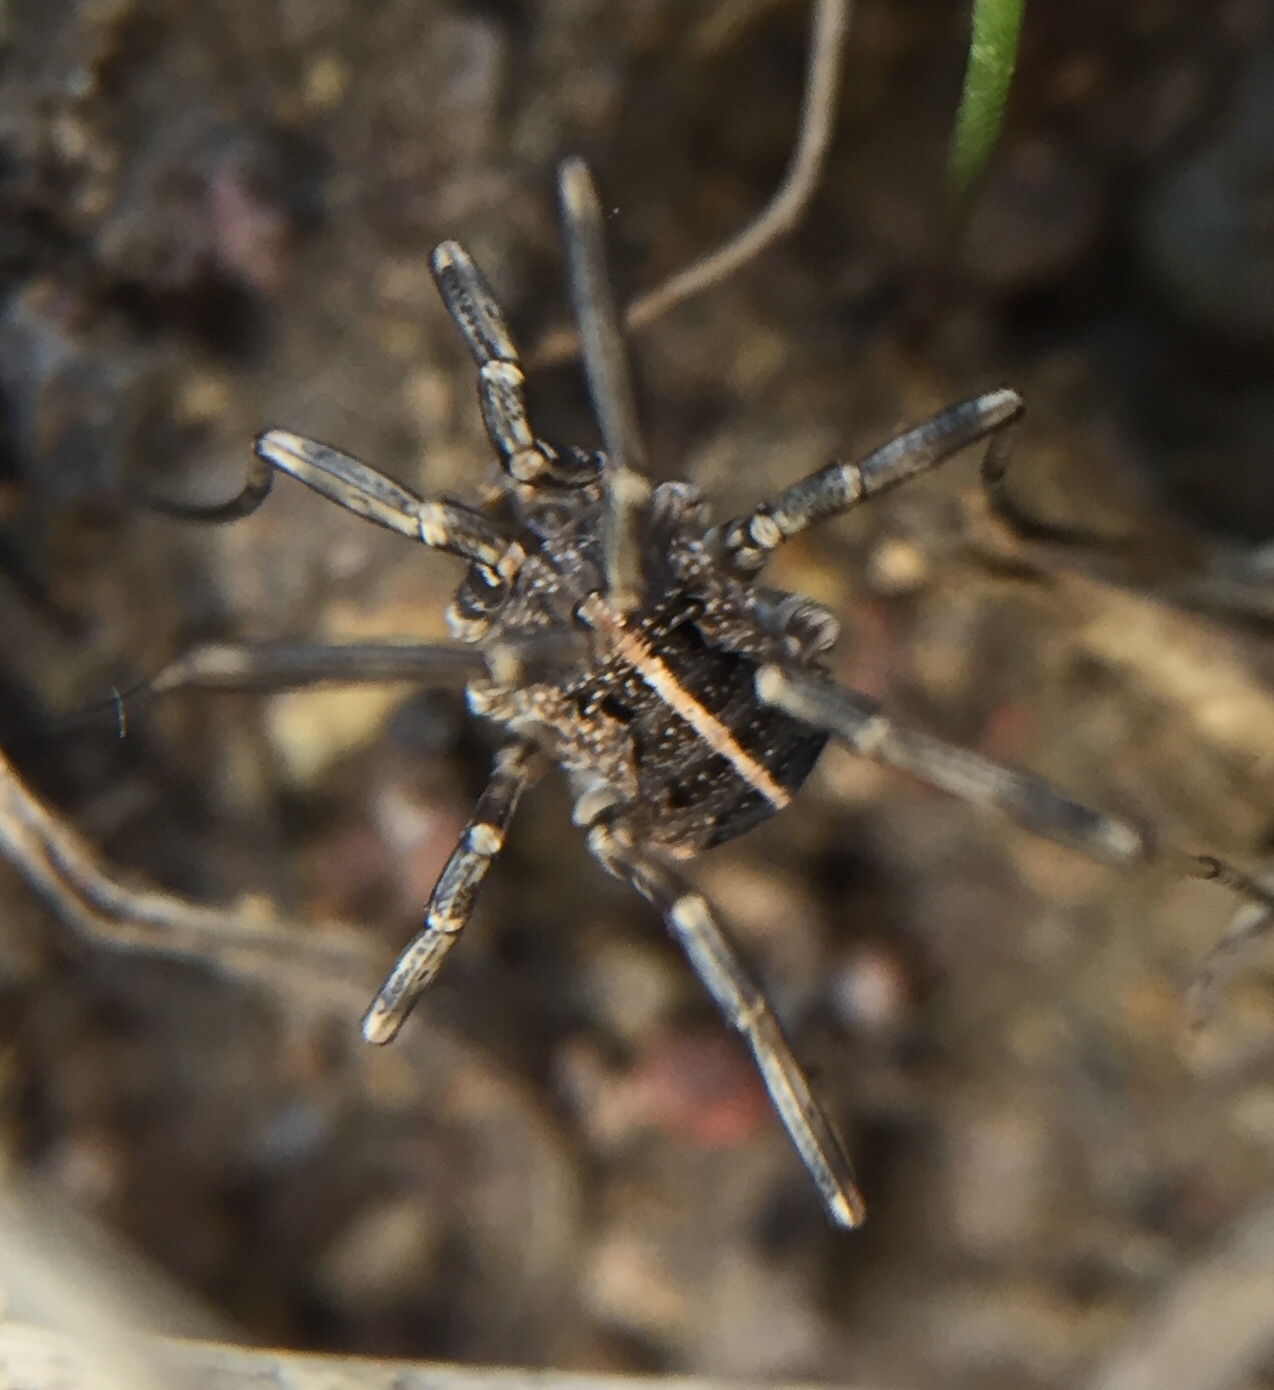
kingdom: Animalia
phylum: Arthropoda
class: Arachnida
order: Opiliones
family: Phalangiidae
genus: Zachaeus
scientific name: Zachaeus crista
